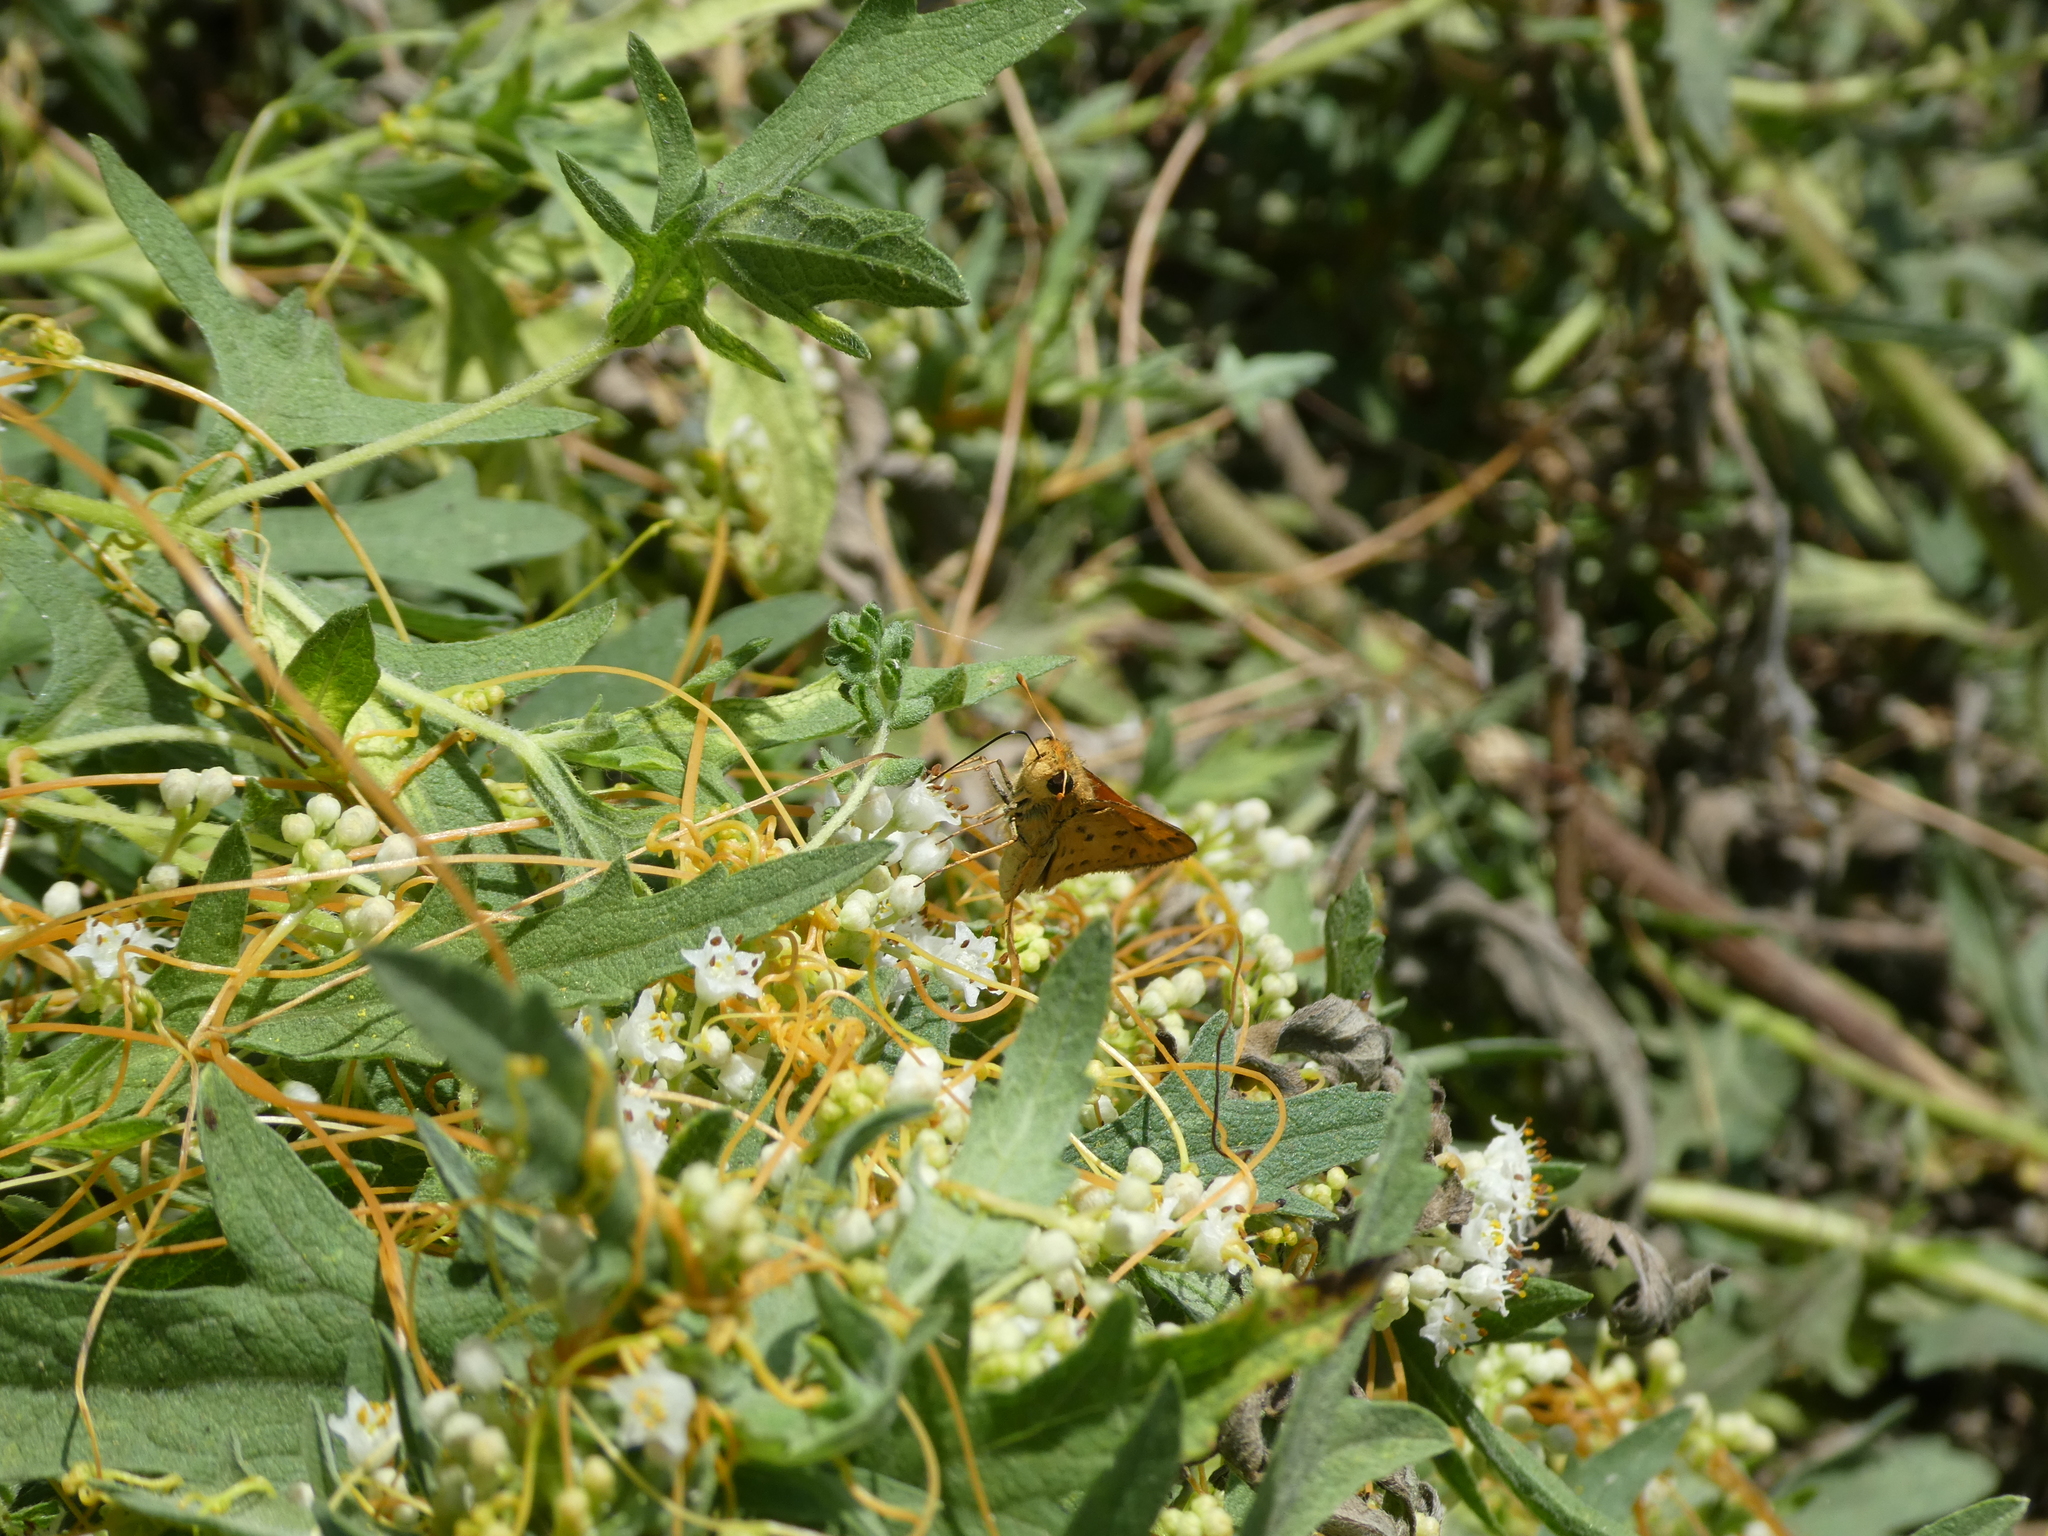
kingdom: Animalia
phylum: Arthropoda
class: Insecta
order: Lepidoptera
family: Hesperiidae
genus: Hylephila
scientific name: Hylephila phyleus
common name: Fiery skipper
